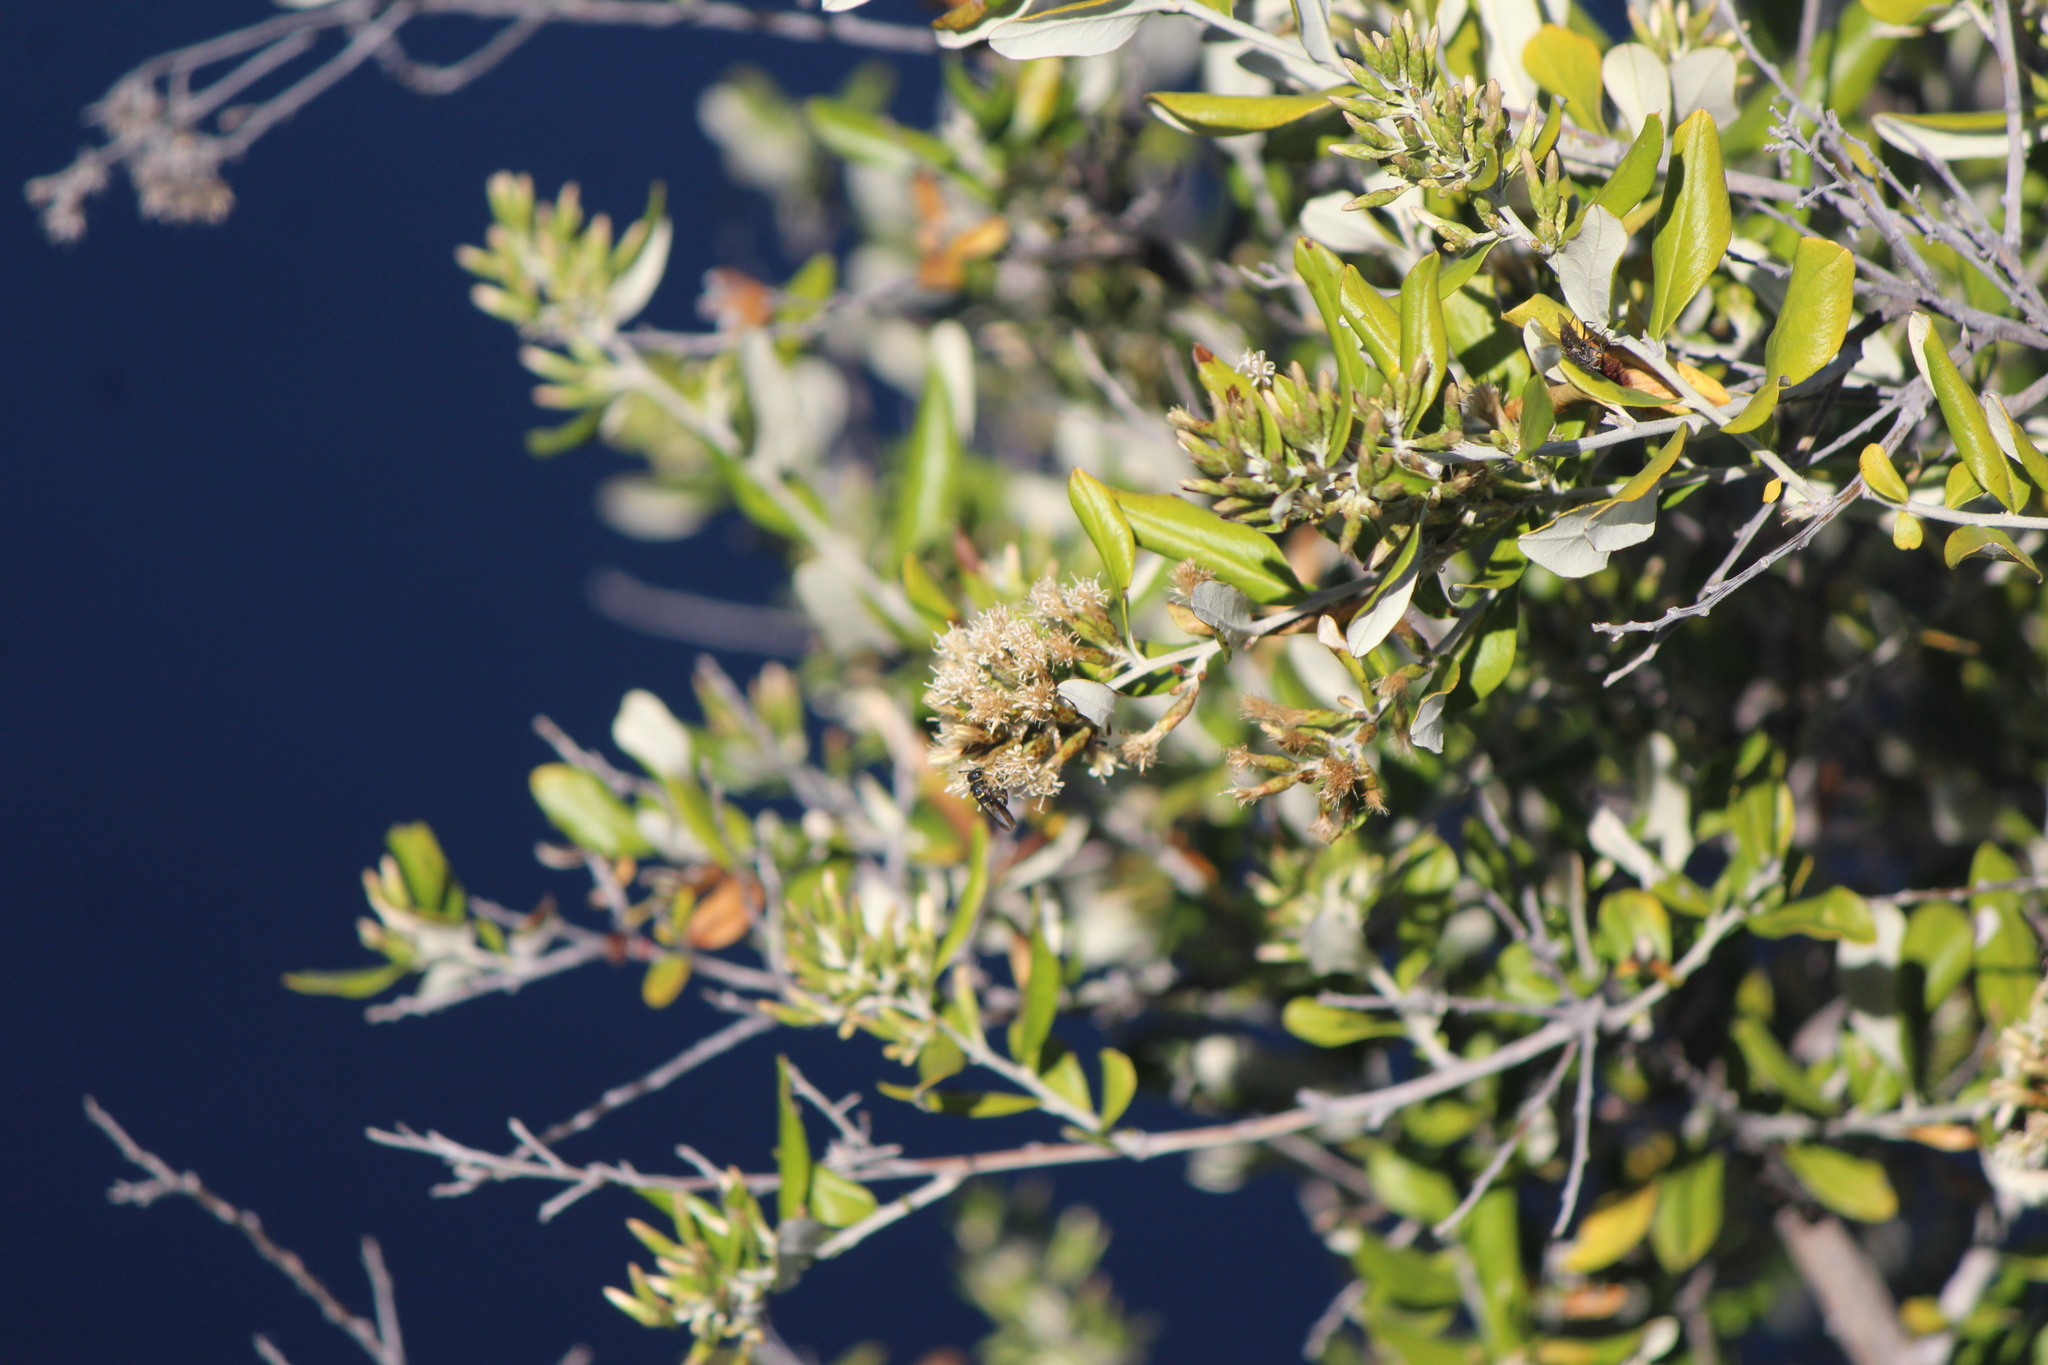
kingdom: Plantae
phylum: Tracheophyta
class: Magnoliopsida
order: Asterales
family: Asteraceae
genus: Nahuatlea
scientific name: Nahuatlea hypoleuca
